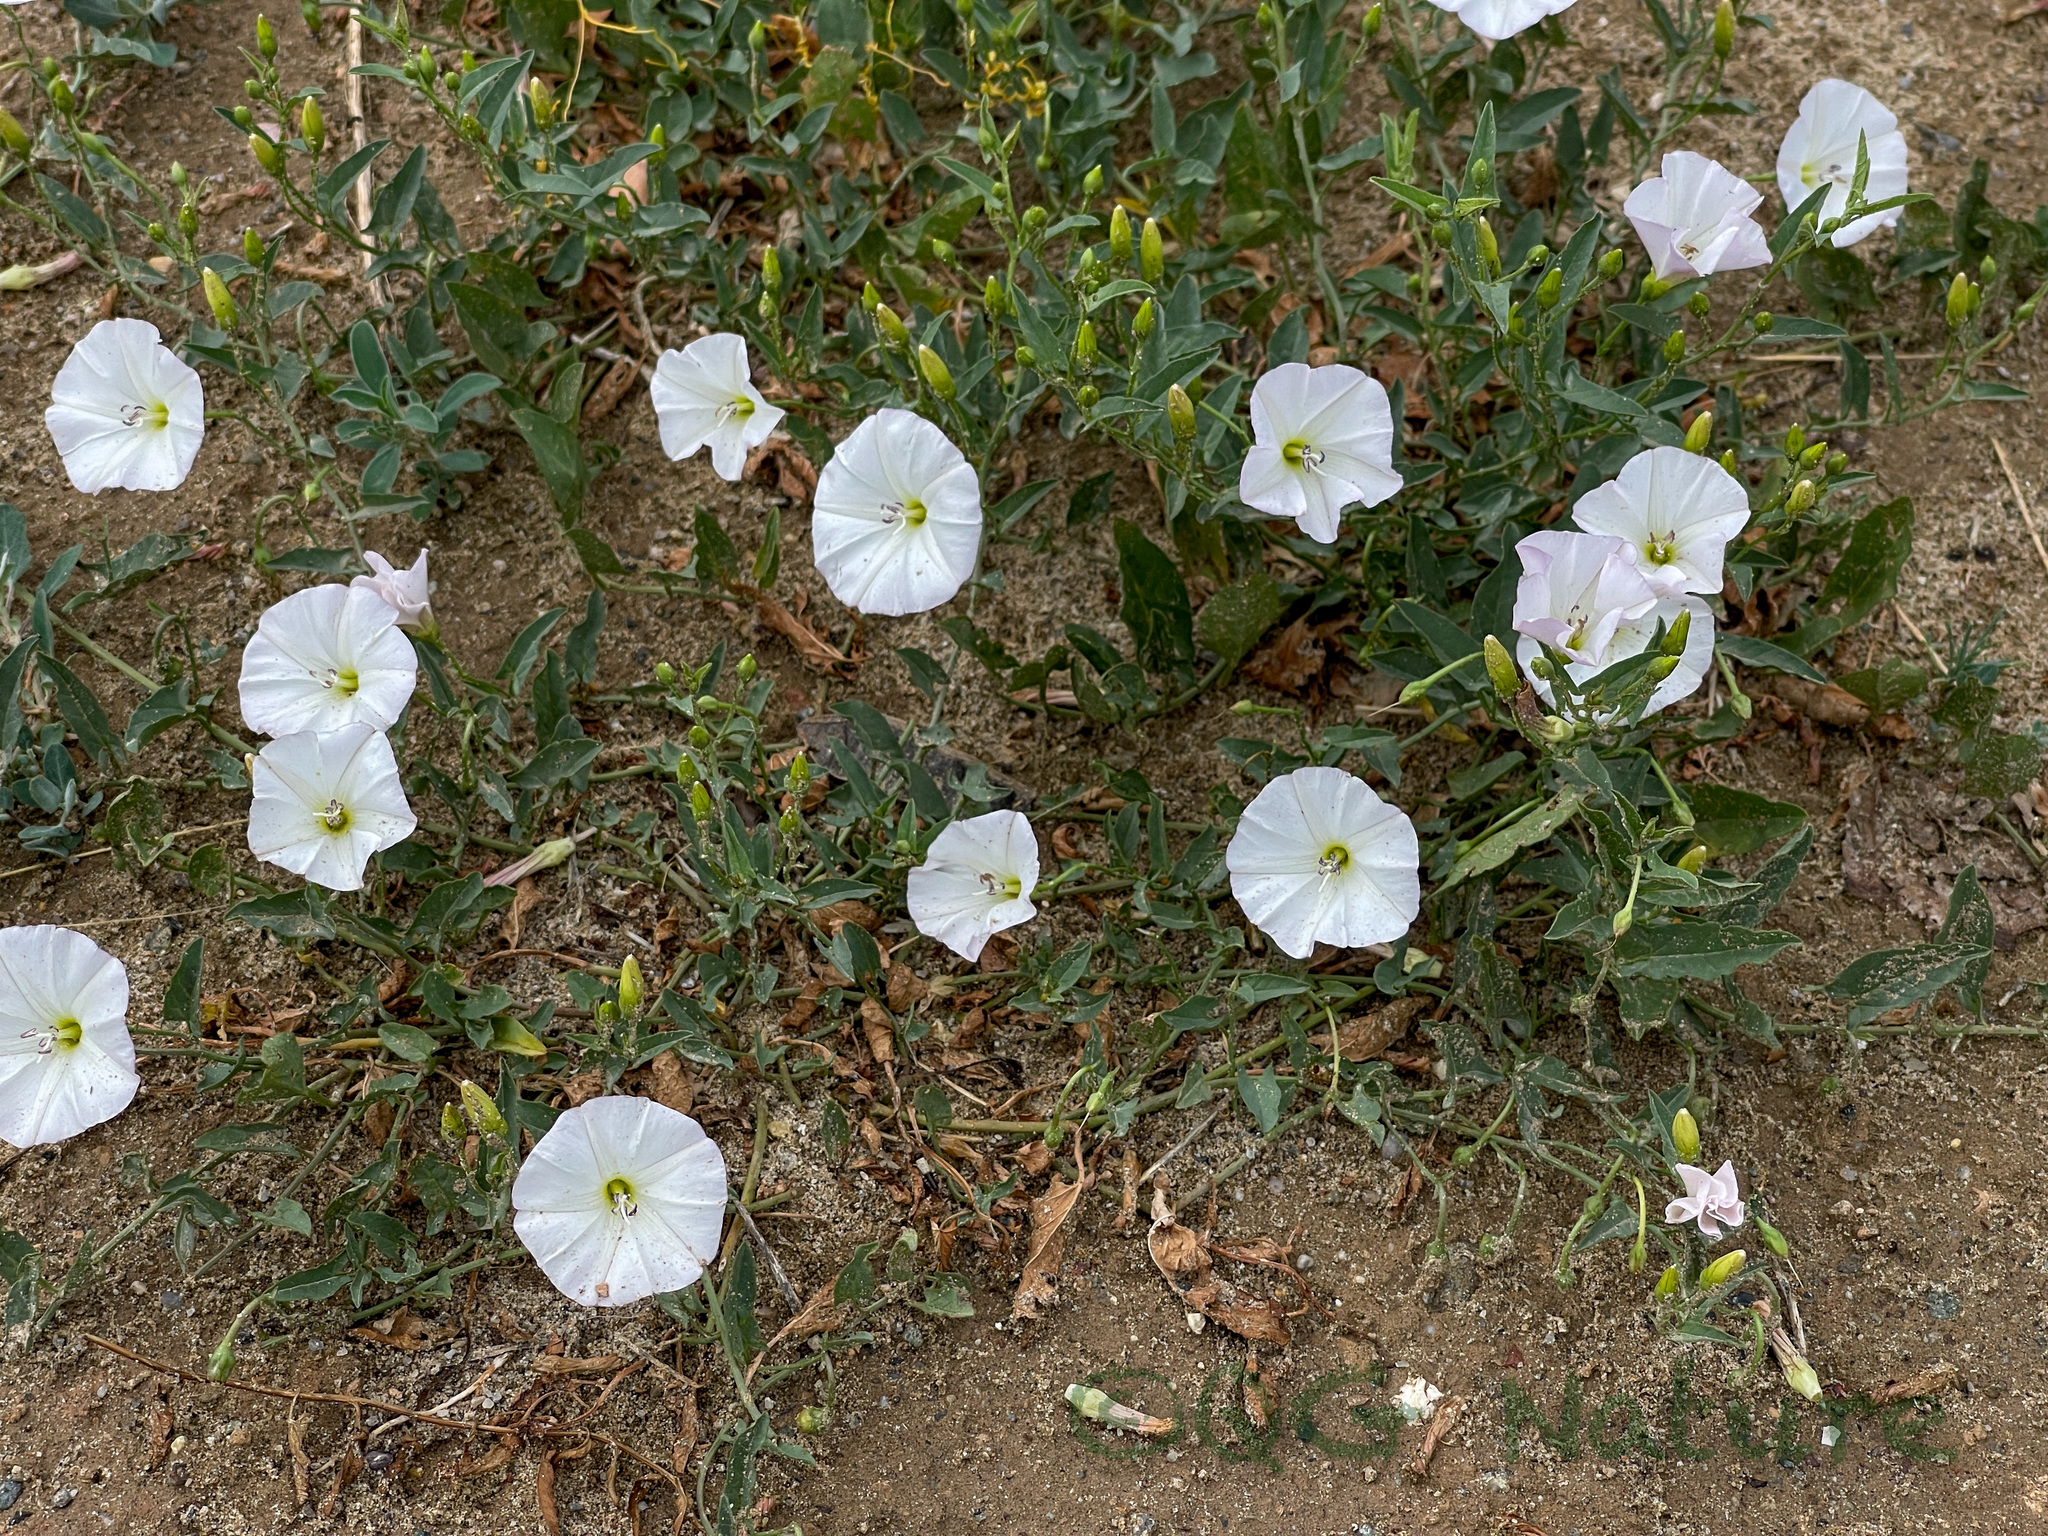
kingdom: Plantae
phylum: Tracheophyta
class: Magnoliopsida
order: Solanales
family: Convolvulaceae
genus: Convolvulus
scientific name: Convolvulus arvensis
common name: Field bindweed
